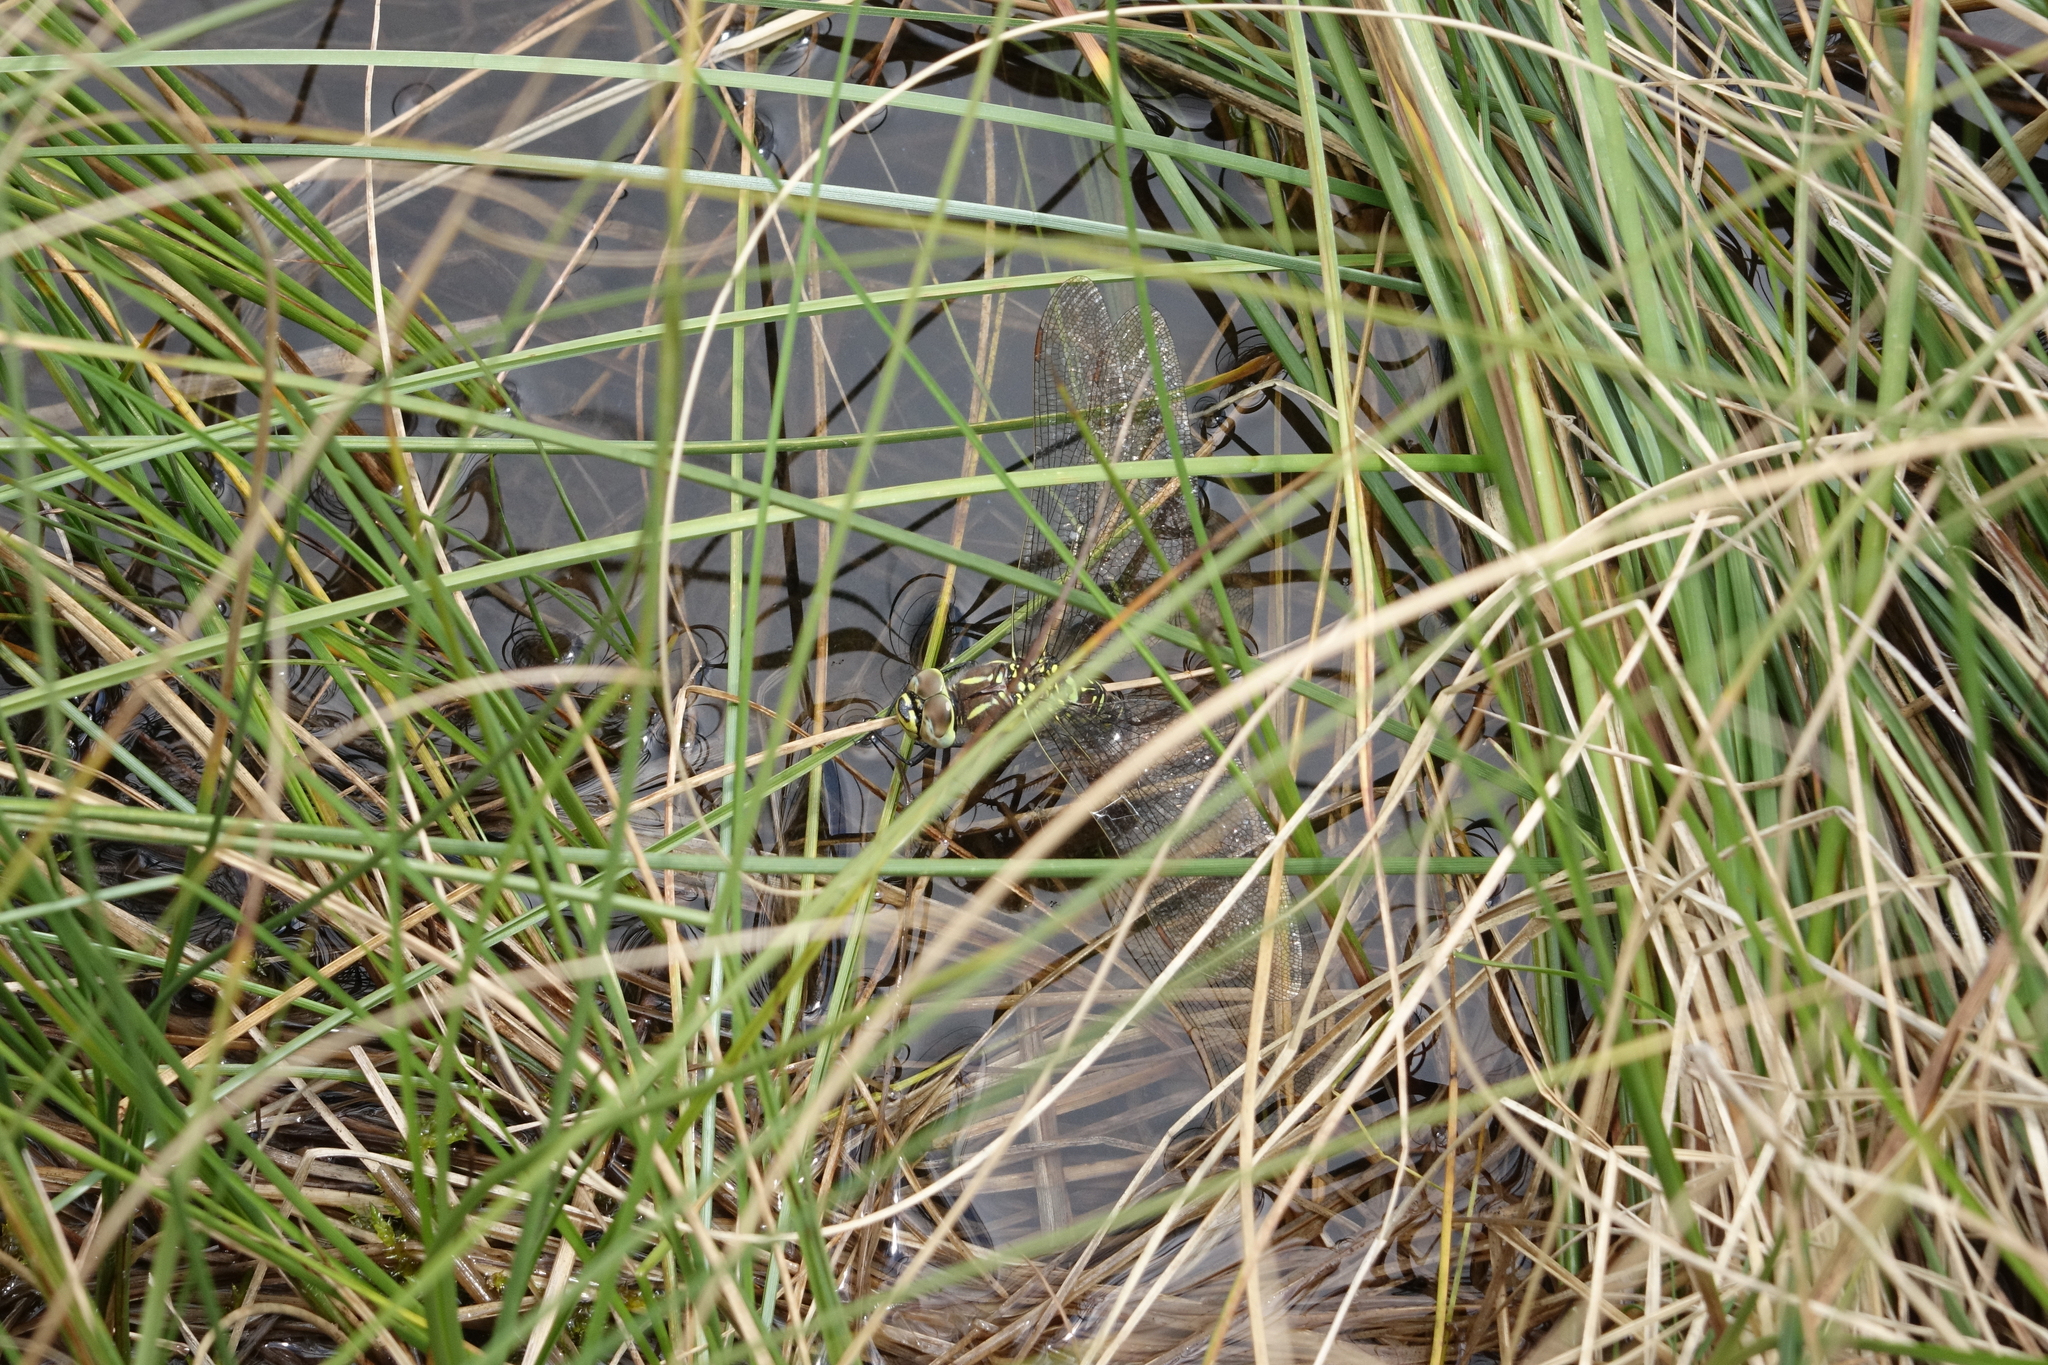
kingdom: Animalia
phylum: Arthropoda
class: Insecta
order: Odonata
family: Aeshnidae
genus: Aeshna
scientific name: Aeshna juncea
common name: Moorland hawker
